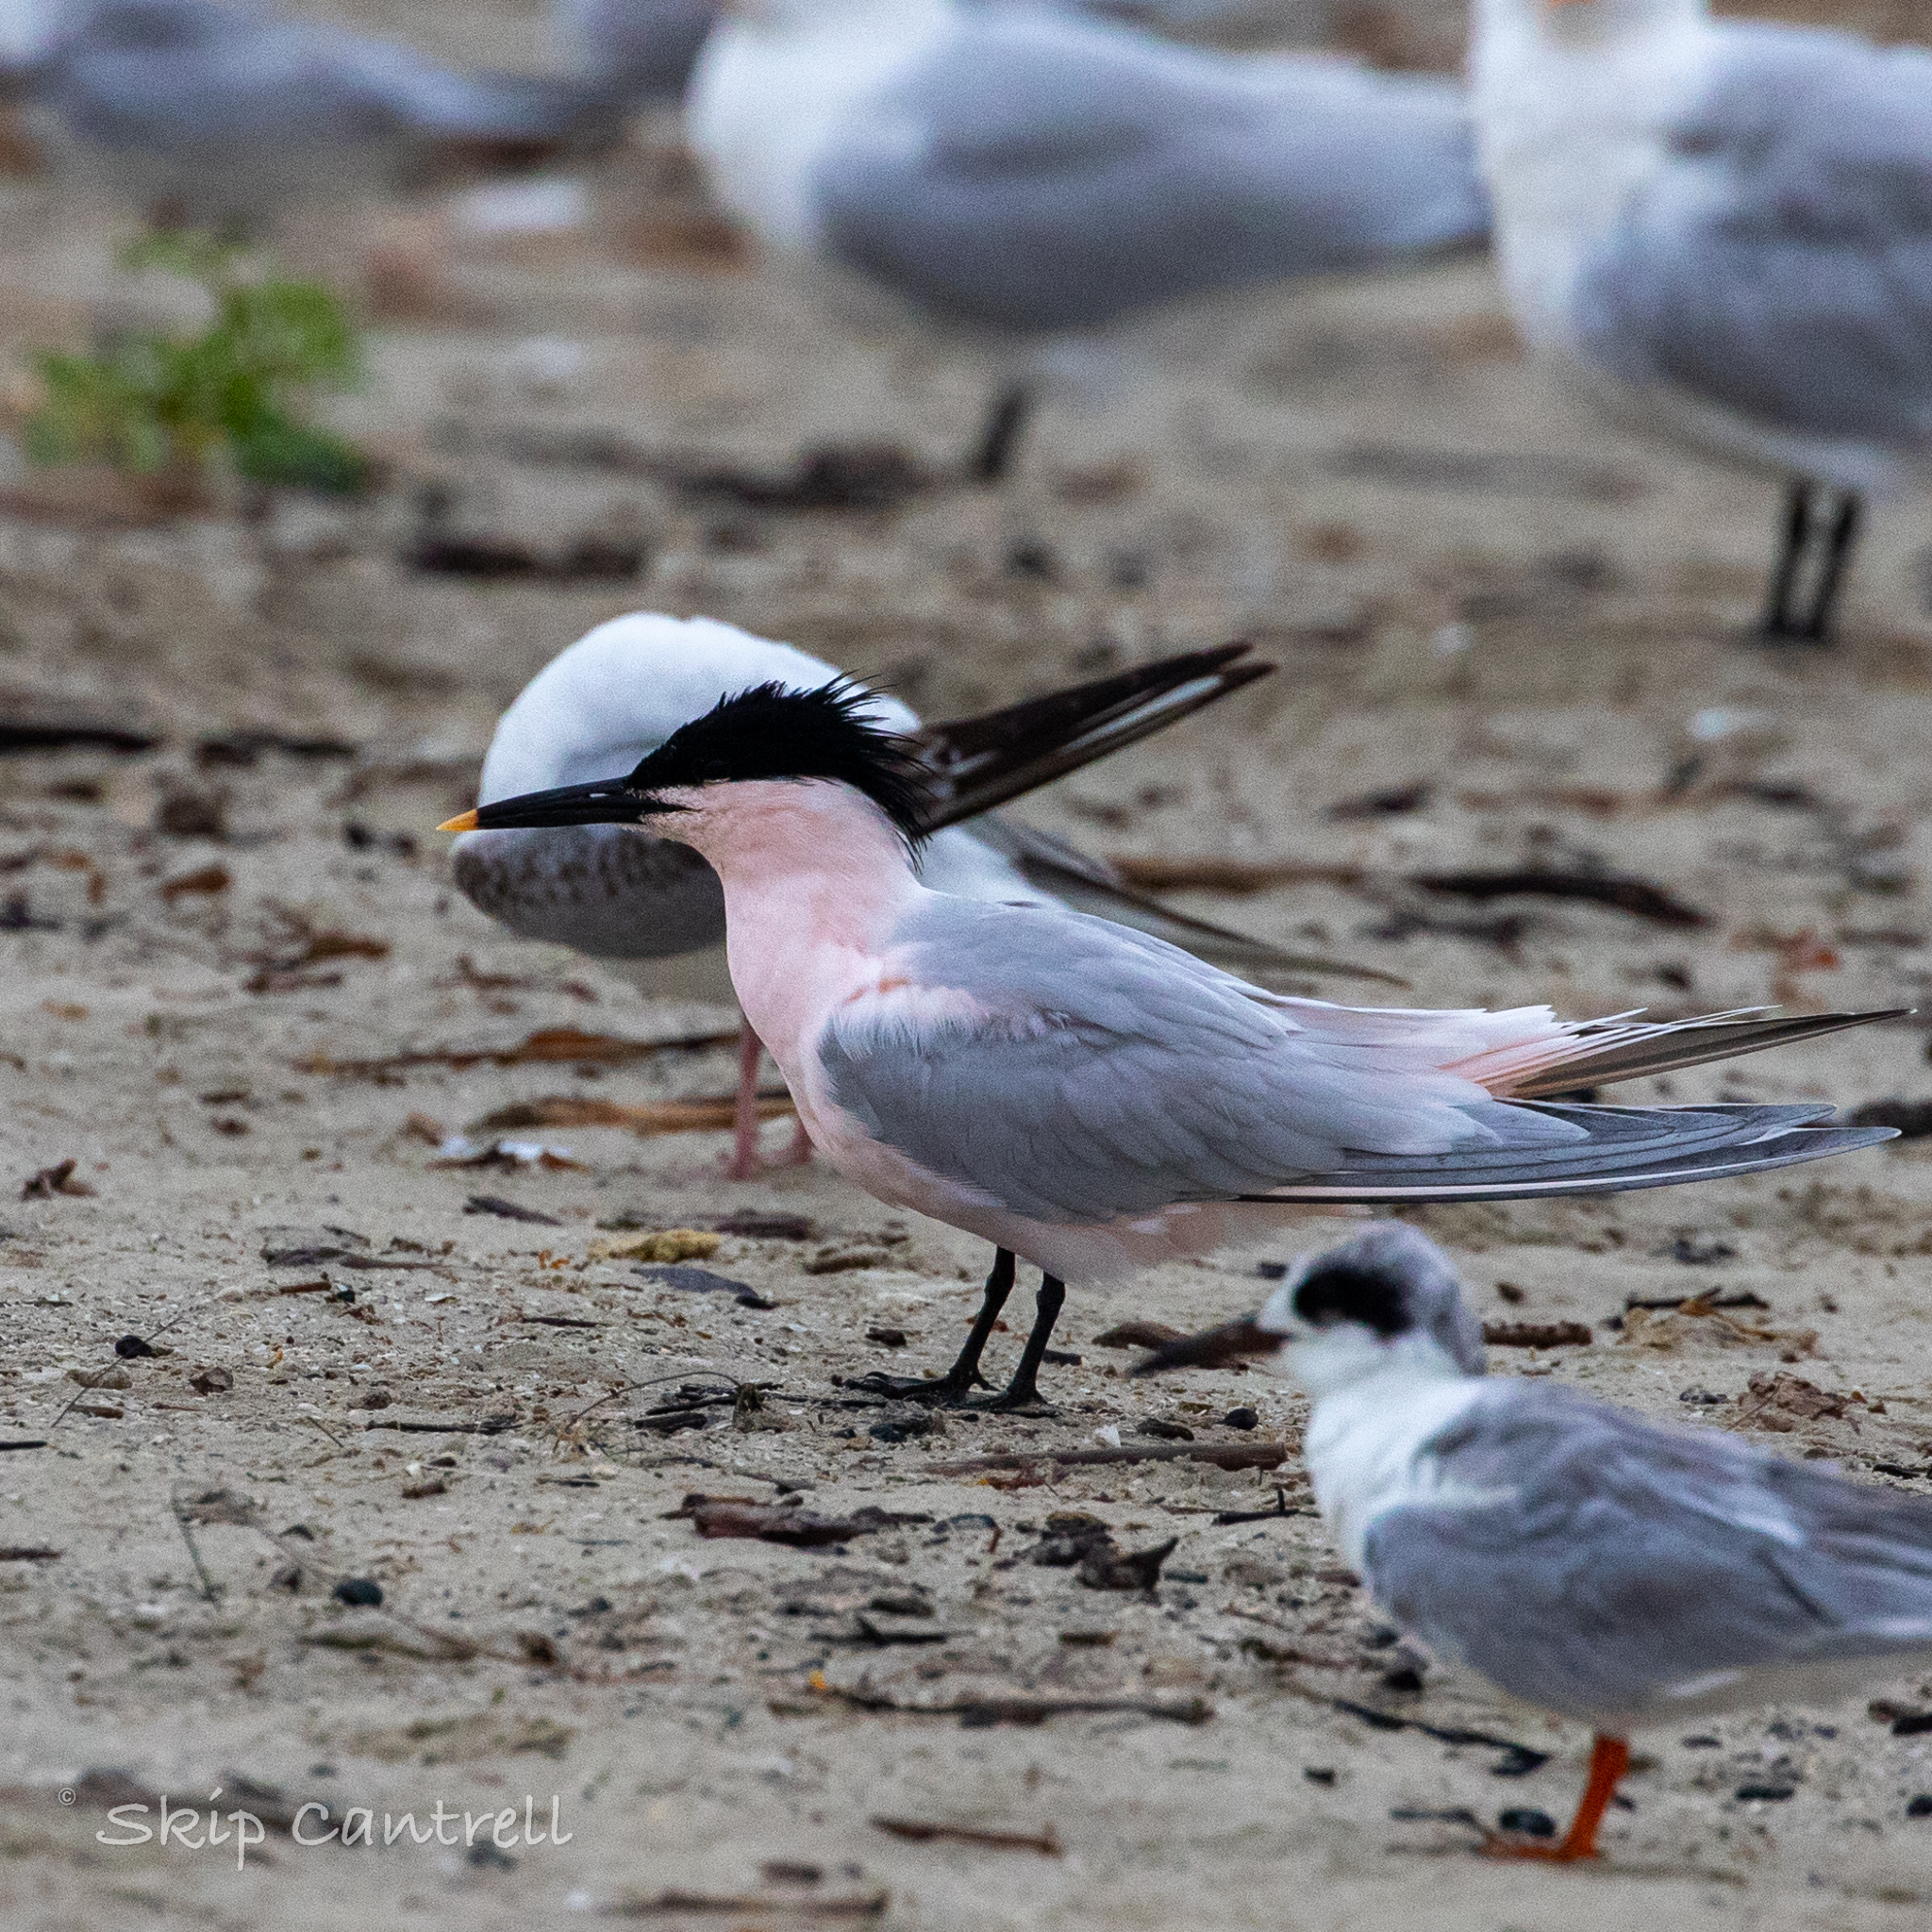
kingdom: Animalia
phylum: Chordata
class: Aves
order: Charadriiformes
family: Laridae
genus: Thalasseus
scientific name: Thalasseus sandvicensis
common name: Sandwich tern
